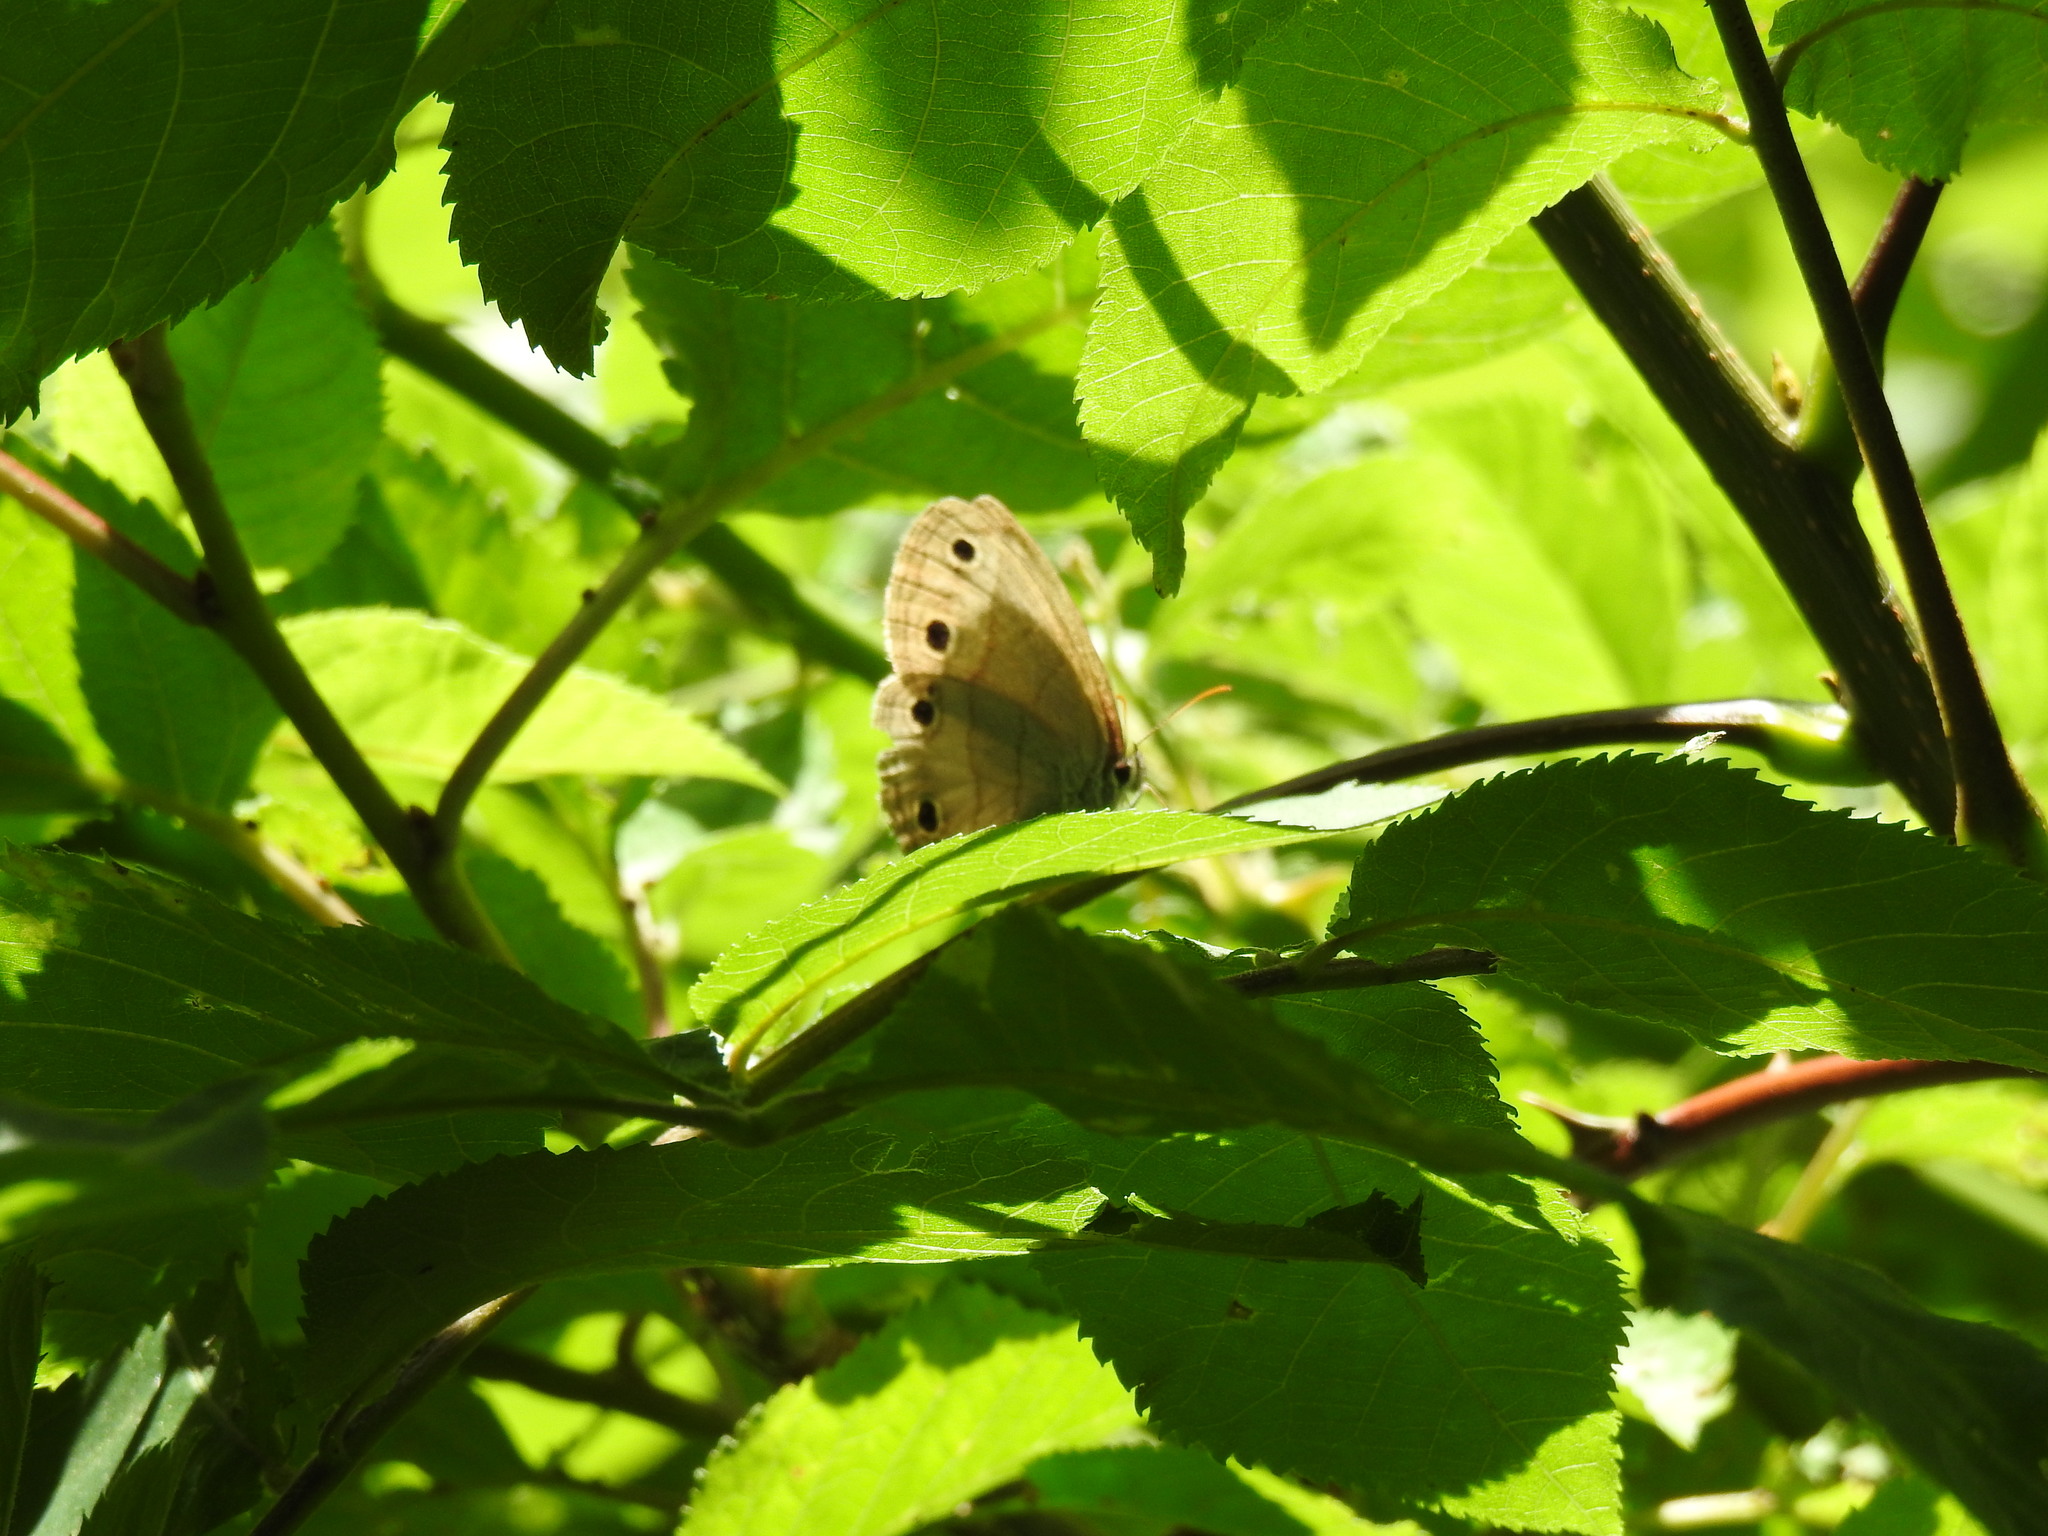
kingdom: Animalia
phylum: Arthropoda
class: Insecta
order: Lepidoptera
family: Nymphalidae
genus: Euptychia
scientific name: Euptychia cymela
